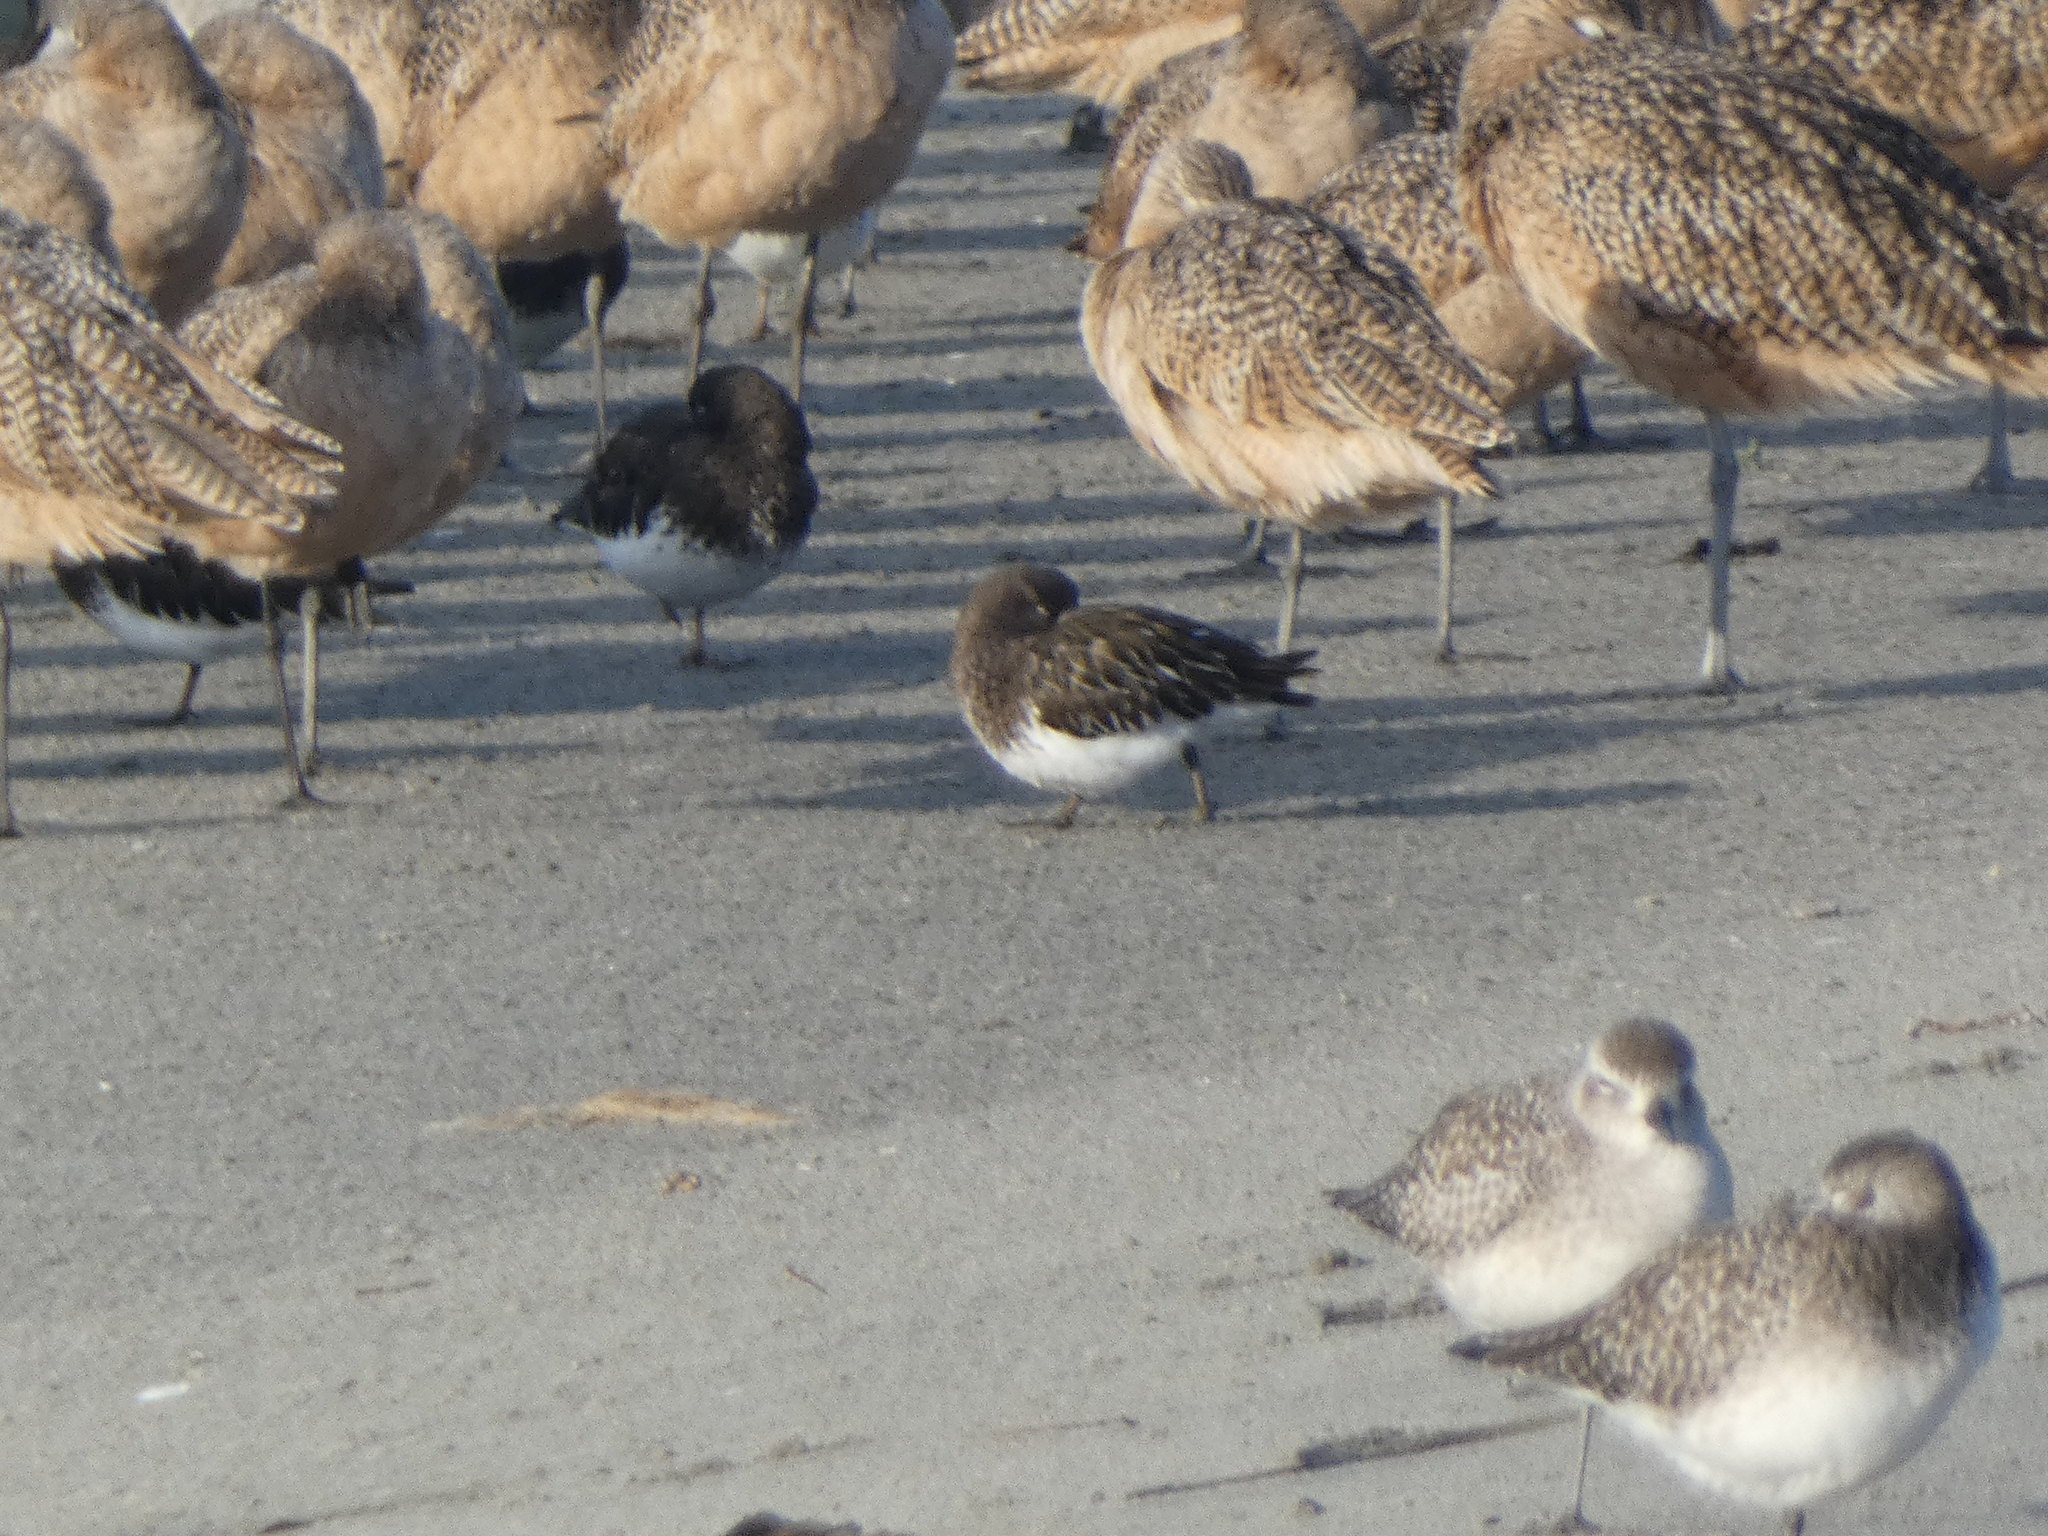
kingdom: Animalia
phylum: Chordata
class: Aves
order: Charadriiformes
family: Scolopacidae
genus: Arenaria
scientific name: Arenaria melanocephala
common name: Black turnstone
